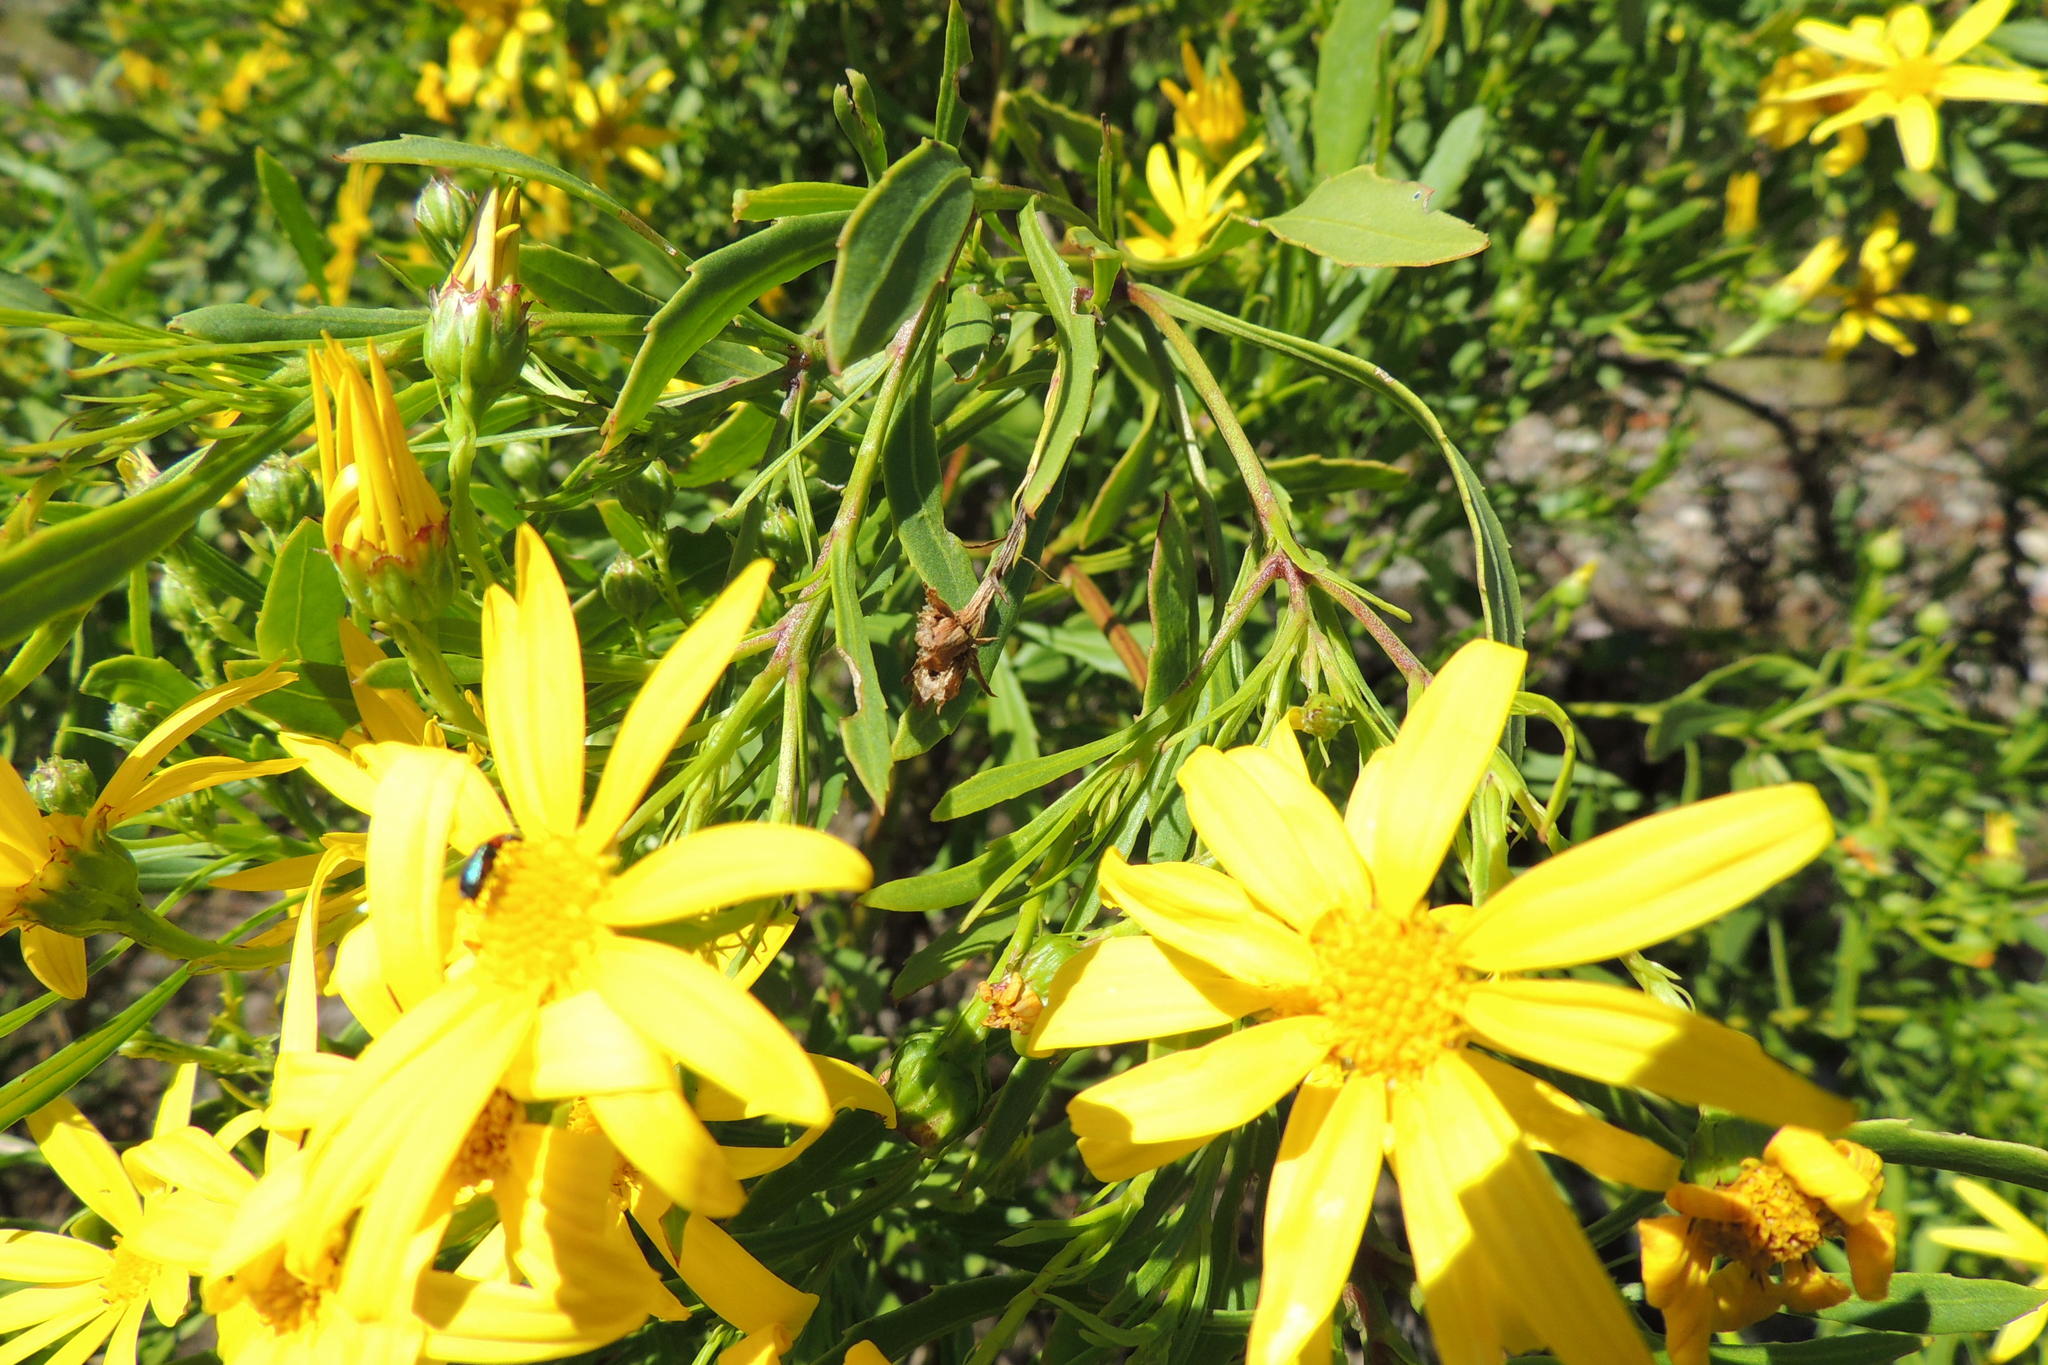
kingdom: Plantae
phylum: Tracheophyta
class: Magnoliopsida
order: Asterales
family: Asteraceae
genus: Osteospermum
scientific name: Osteospermum moniliferum
